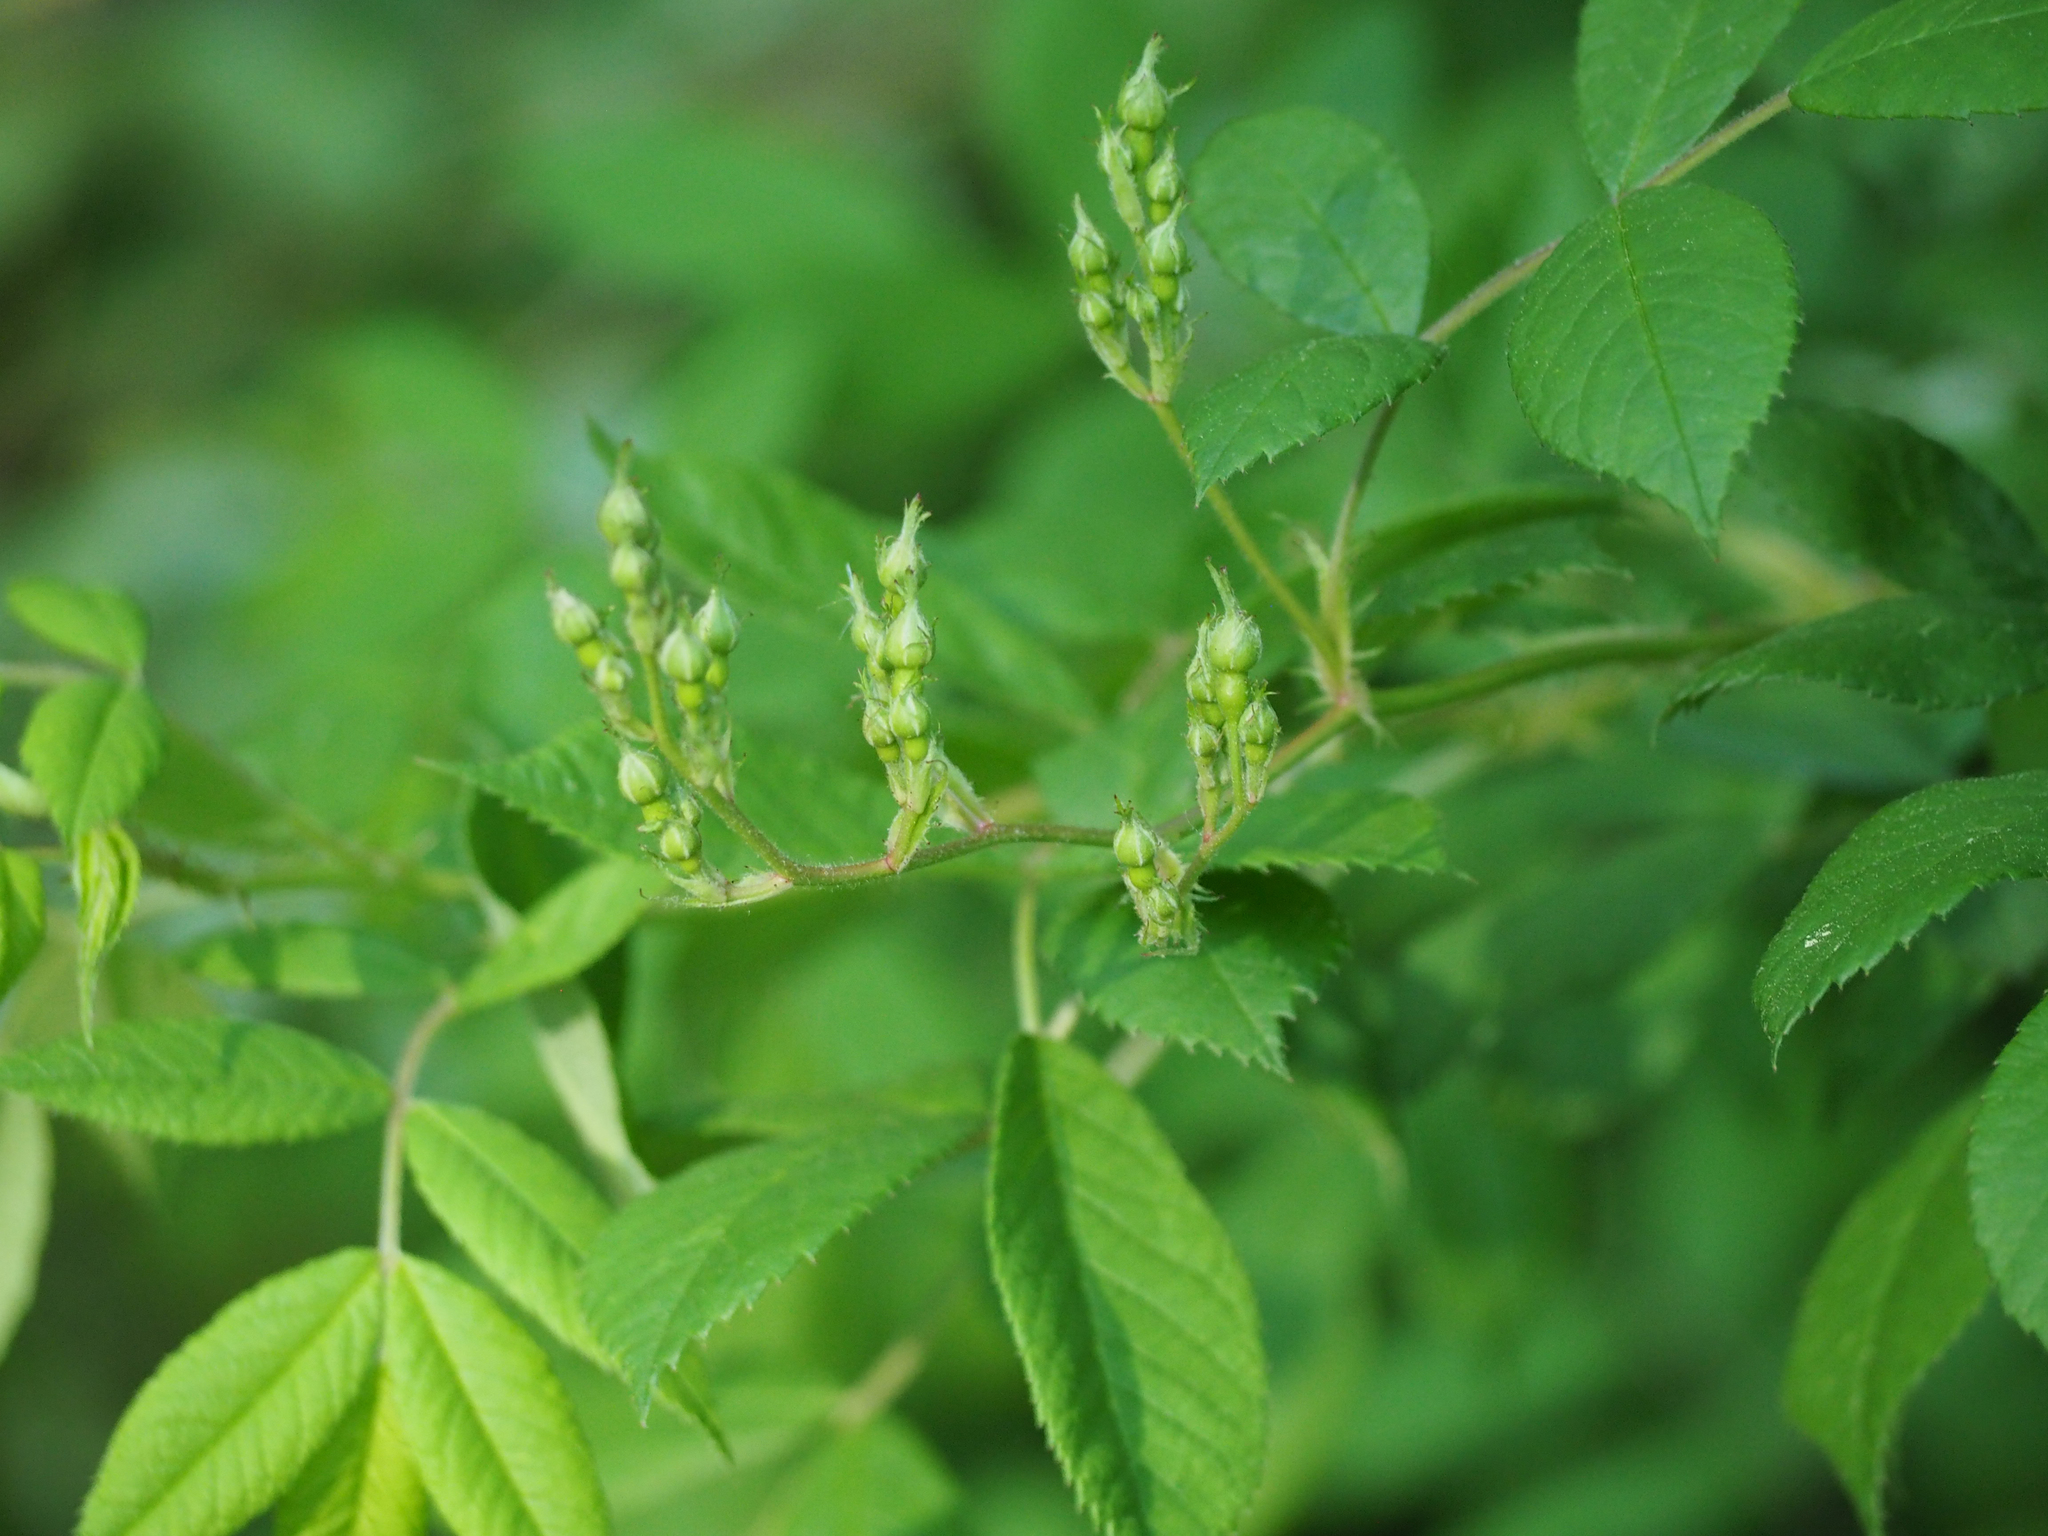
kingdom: Plantae
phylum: Tracheophyta
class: Magnoliopsida
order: Rosales
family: Rosaceae
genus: Rosa
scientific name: Rosa multiflora
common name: Multiflora rose
